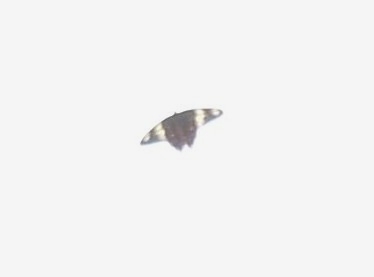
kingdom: Animalia
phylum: Arthropoda
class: Insecta
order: Lepidoptera
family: Papilionidae
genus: Pachliopta
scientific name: Pachliopta hector
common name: Crimson rose
